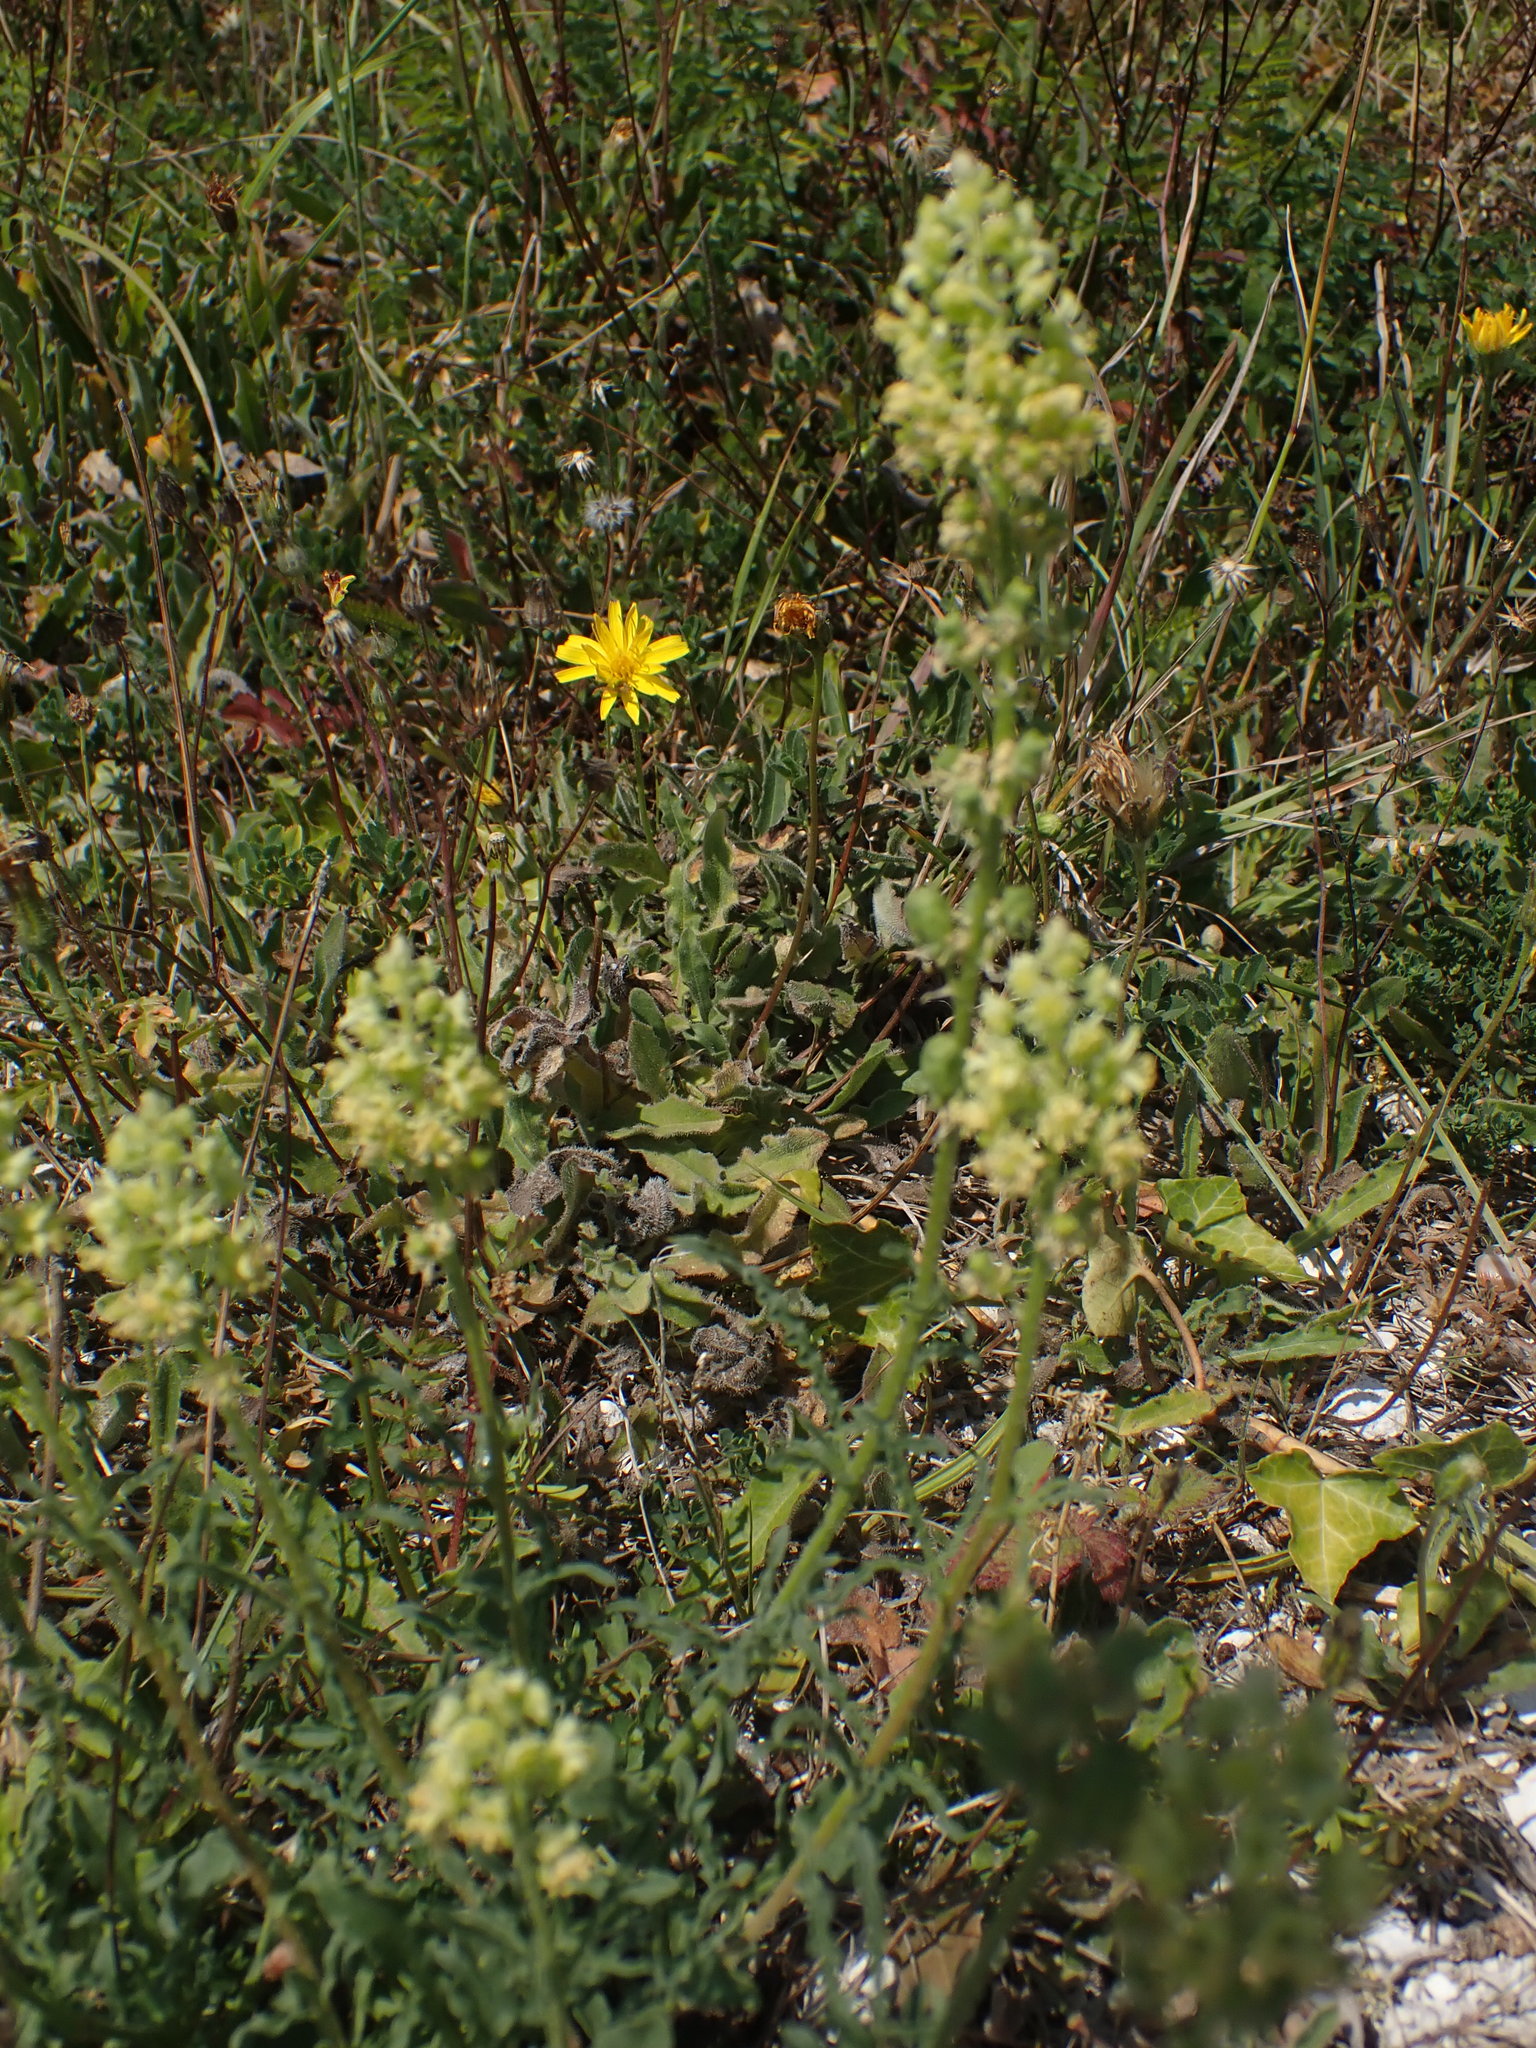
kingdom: Plantae
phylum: Tracheophyta
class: Magnoliopsida
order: Brassicales
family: Resedaceae
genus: Reseda
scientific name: Reseda lutea
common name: Wild mignonette
